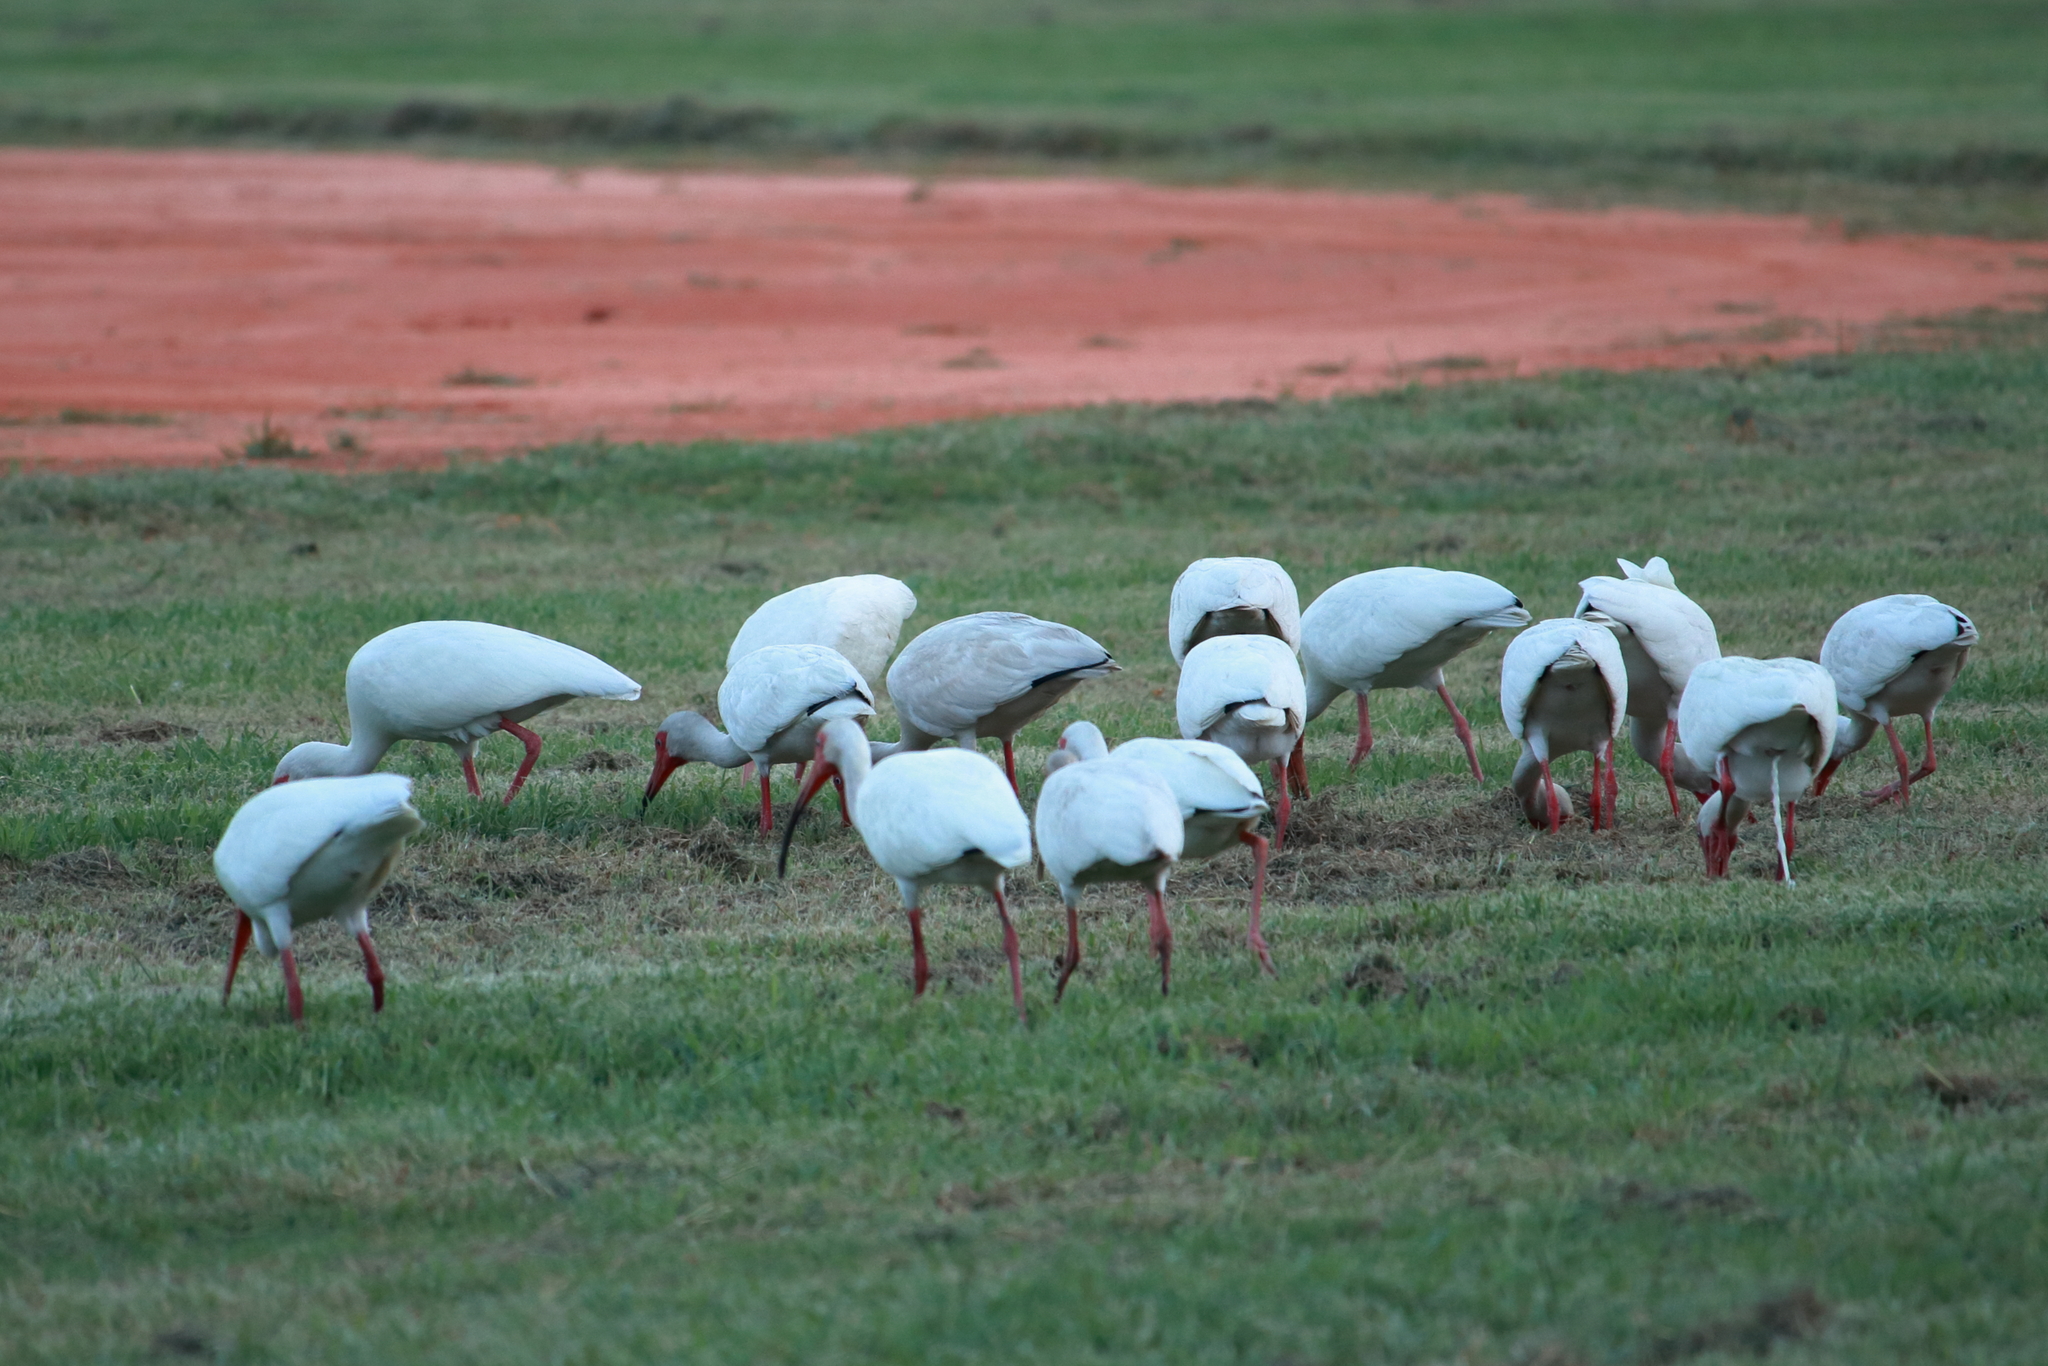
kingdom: Animalia
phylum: Chordata
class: Aves
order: Pelecaniformes
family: Threskiornithidae
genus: Eudocimus
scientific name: Eudocimus albus
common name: White ibis
